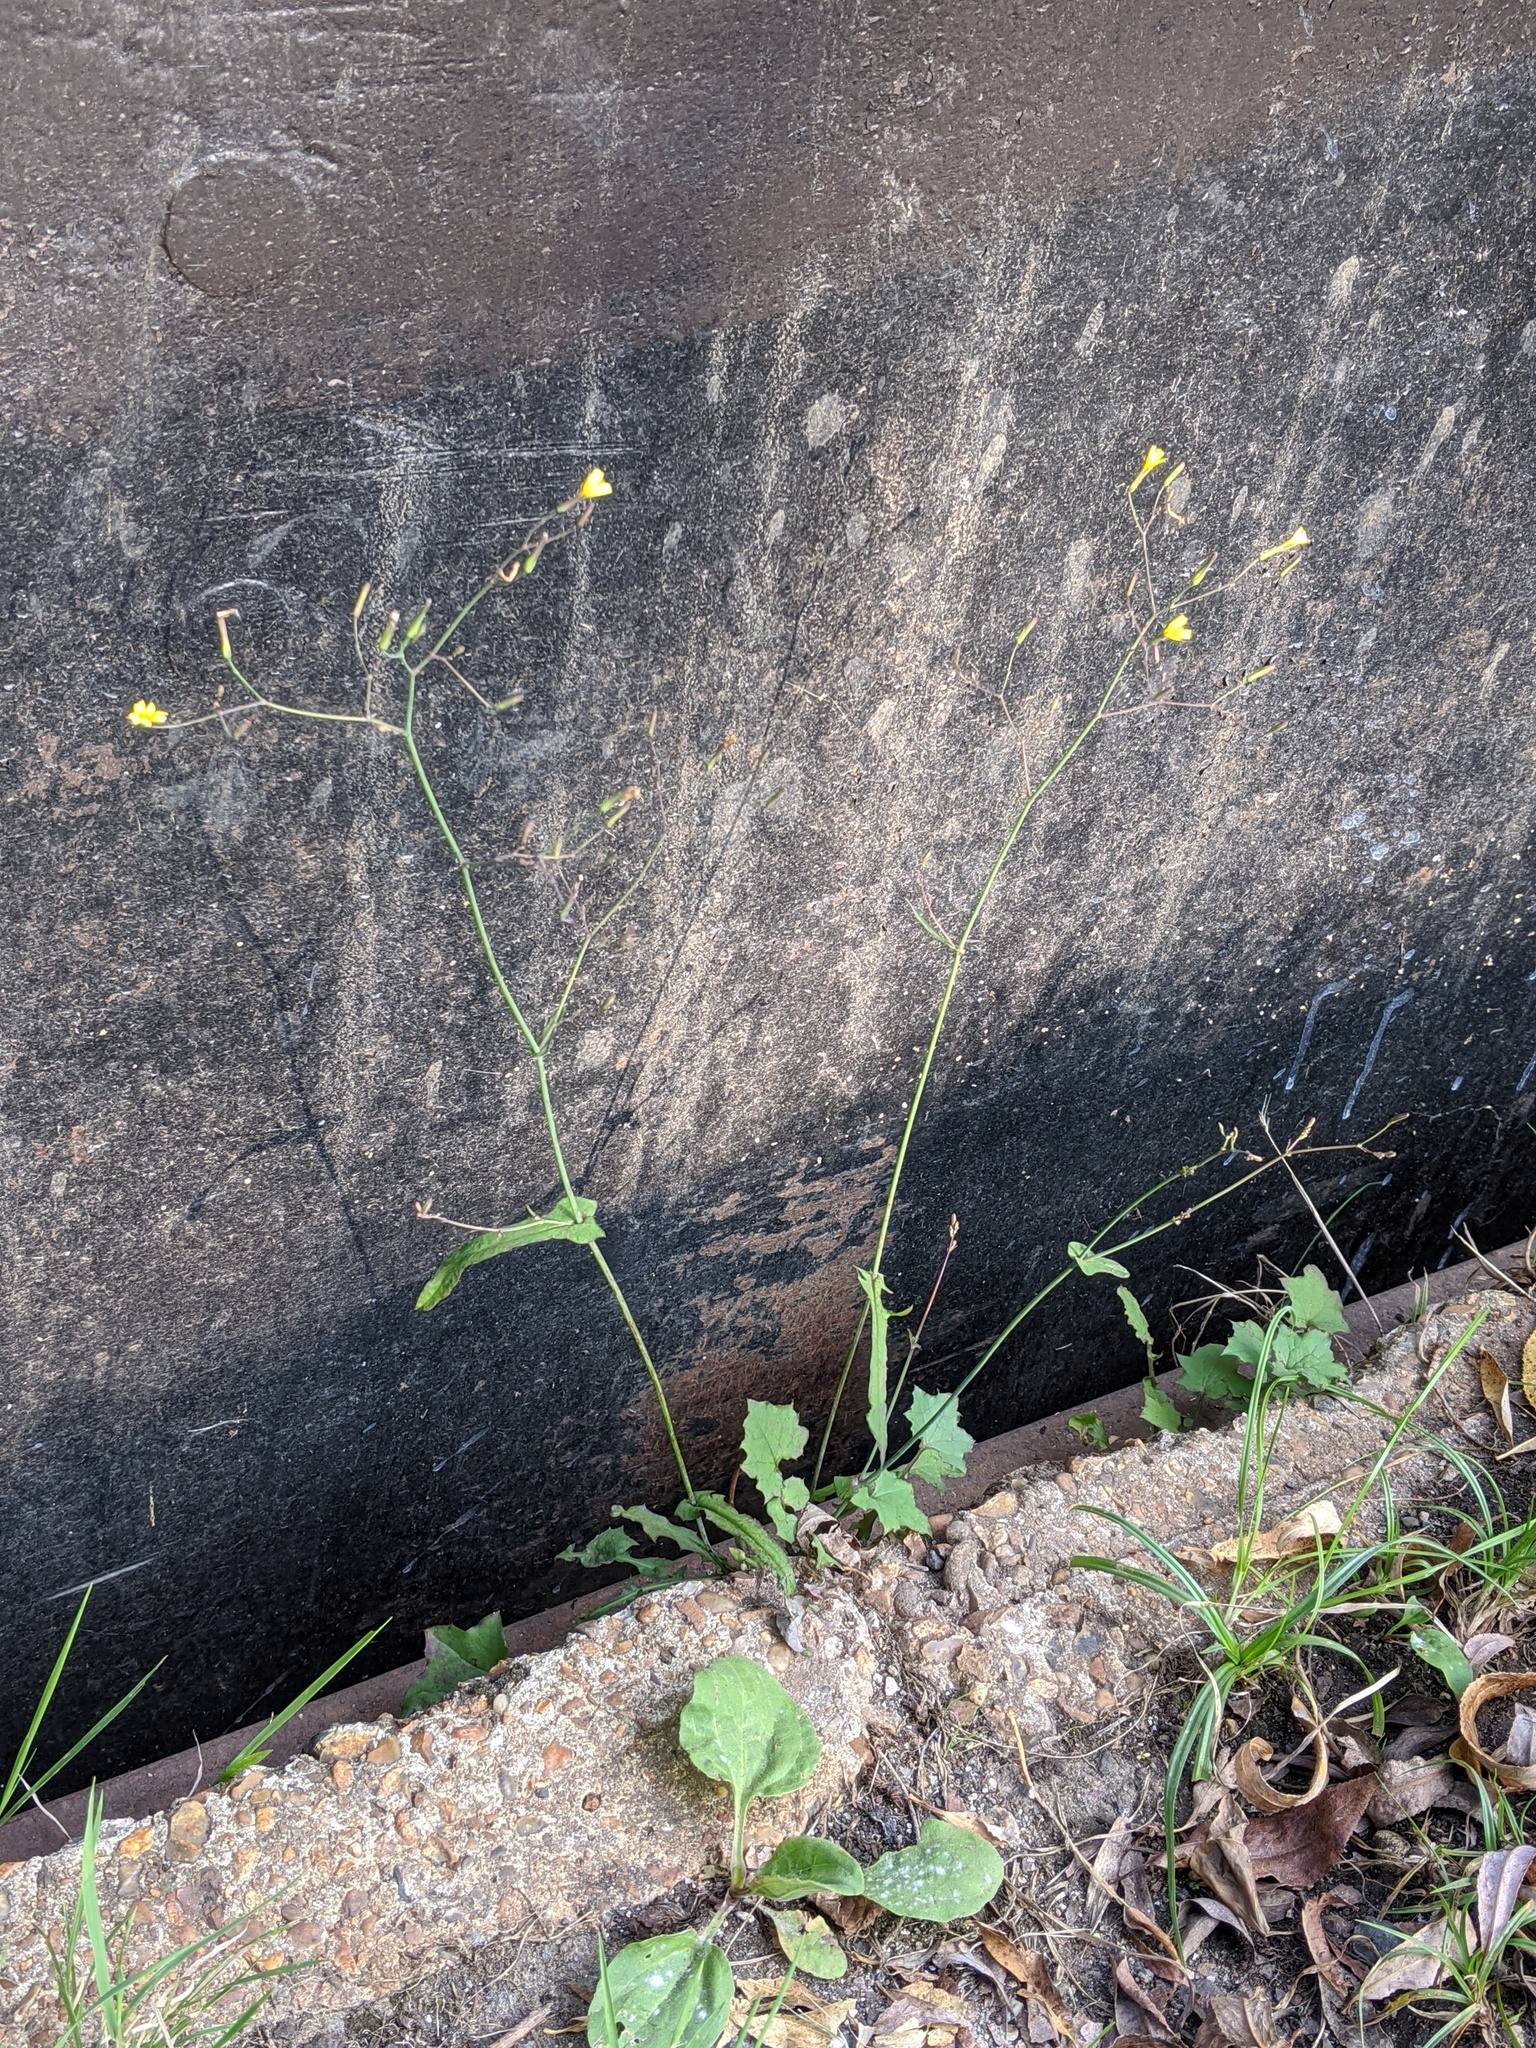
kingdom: Plantae
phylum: Tracheophyta
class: Magnoliopsida
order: Asterales
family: Asteraceae
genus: Mycelis
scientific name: Mycelis muralis
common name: Wall lettuce
